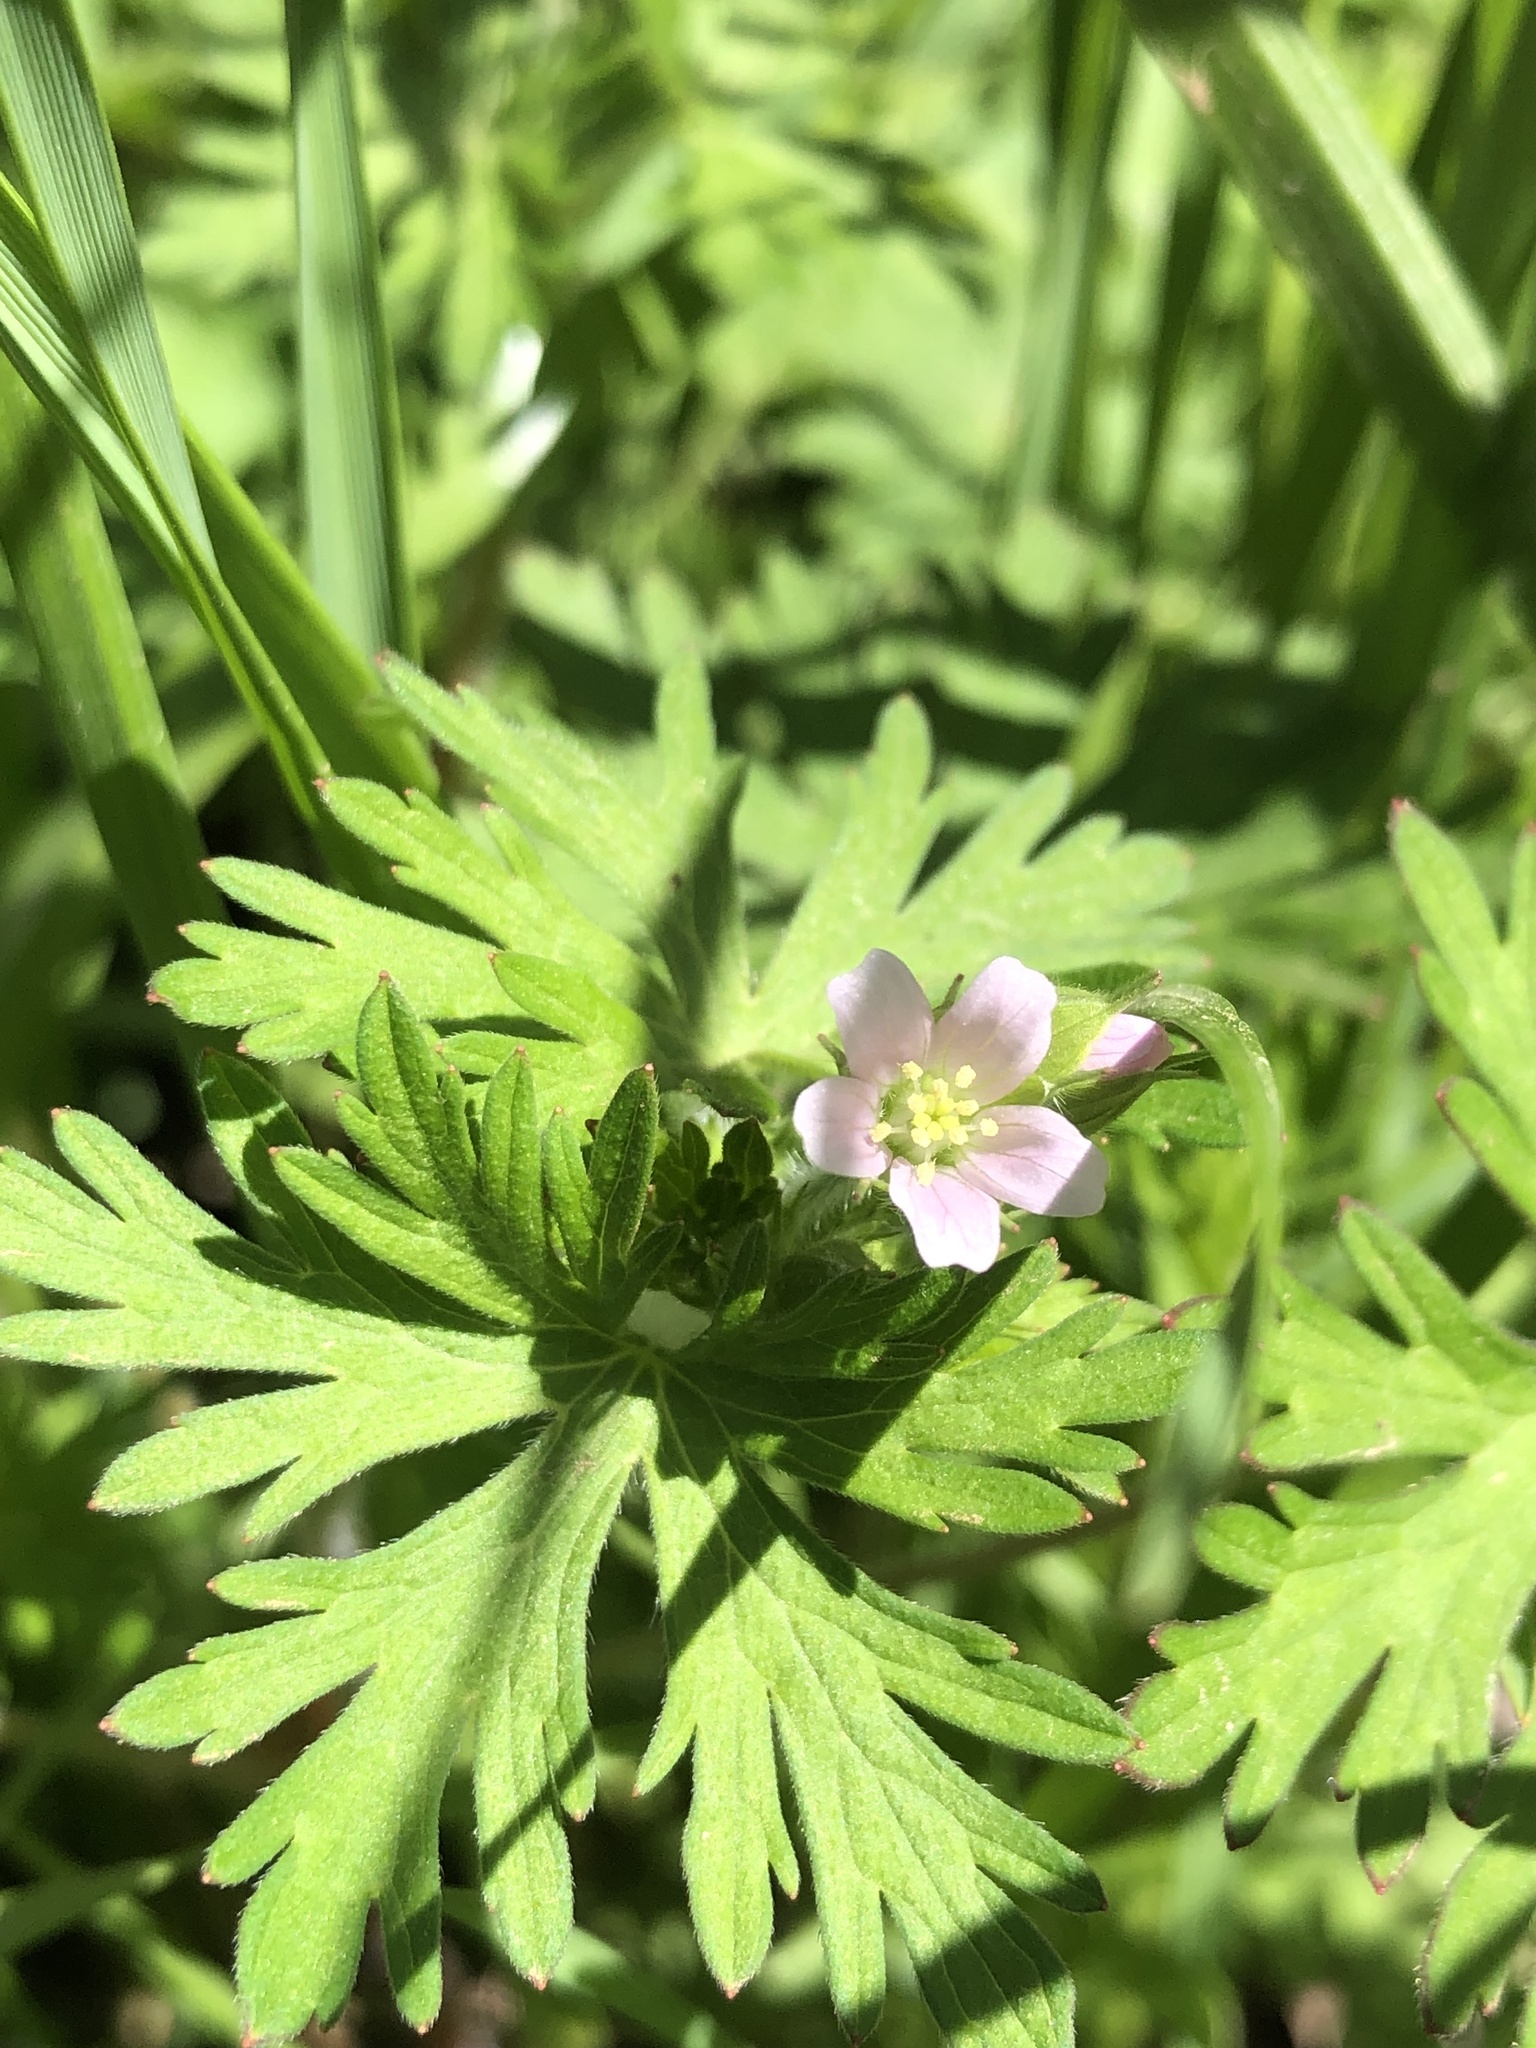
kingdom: Plantae
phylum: Tracheophyta
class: Magnoliopsida
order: Geraniales
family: Geraniaceae
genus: Geranium
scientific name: Geranium carolinianum
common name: Carolina crane's-bill
